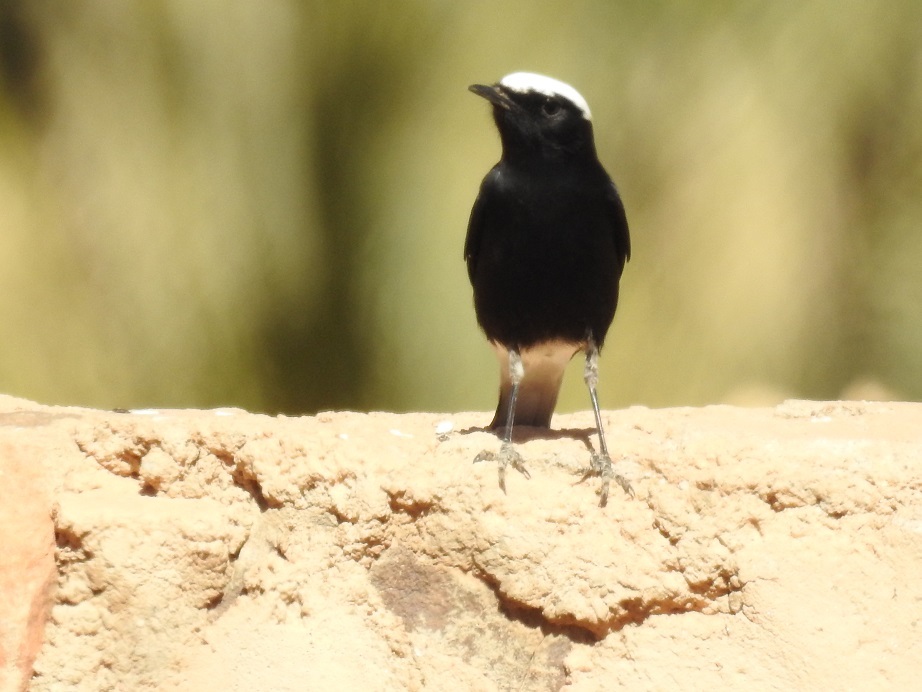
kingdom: Animalia
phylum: Chordata
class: Aves
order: Passeriformes
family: Muscicapidae
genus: Oenanthe
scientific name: Oenanthe leucopyga
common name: White-crowned wheatear
